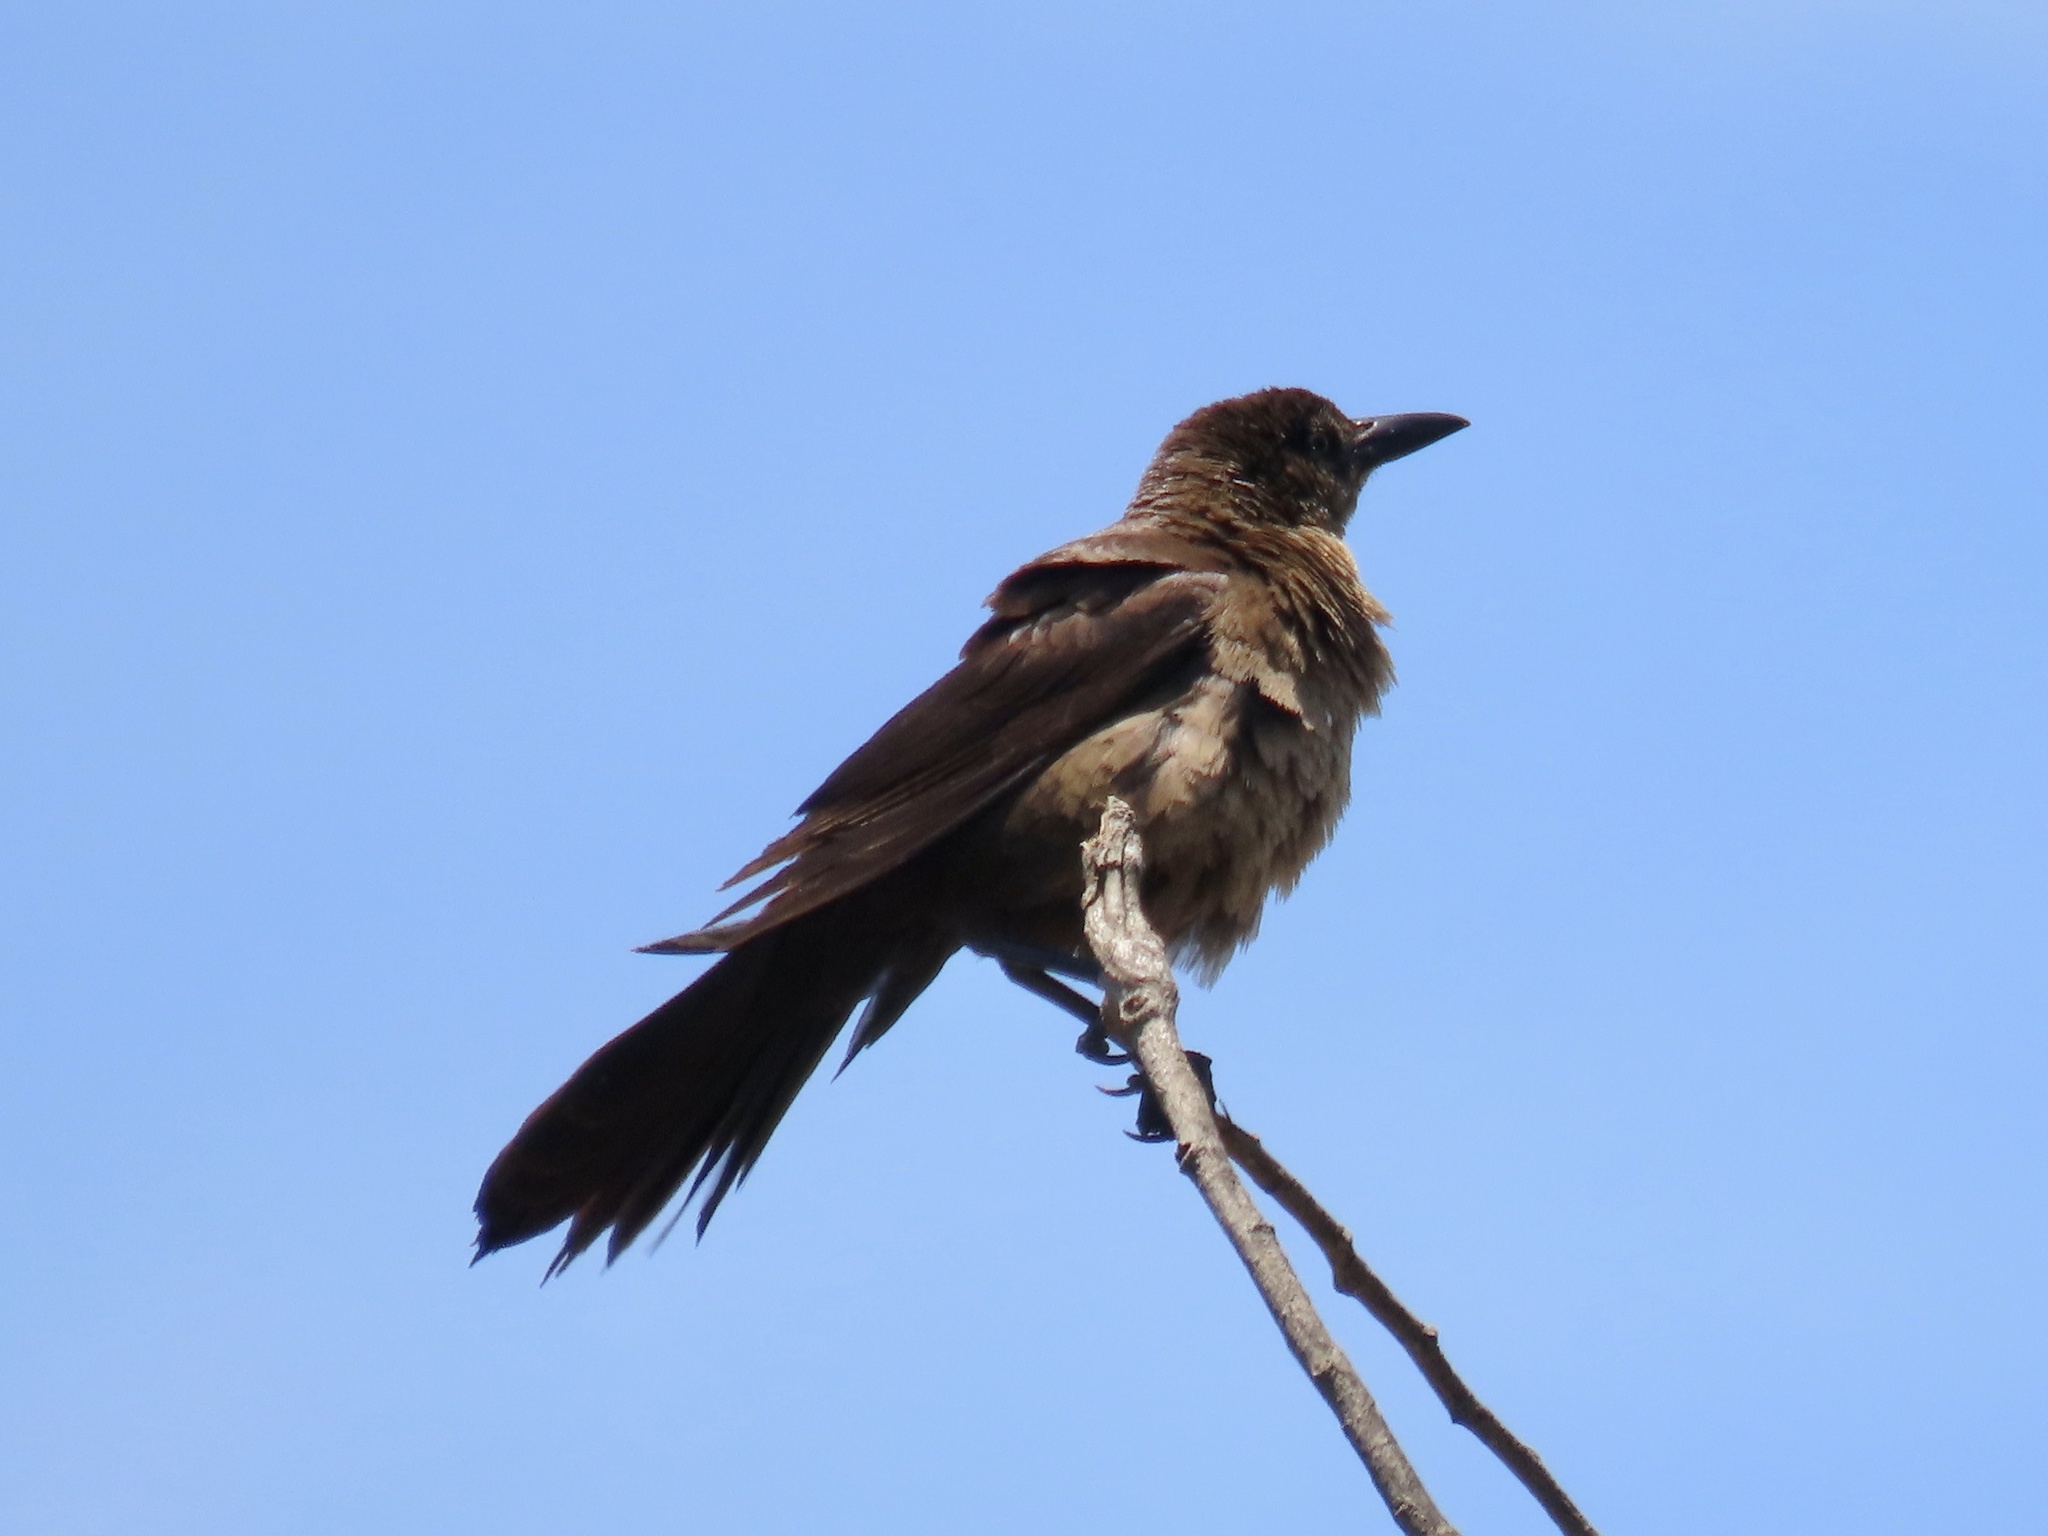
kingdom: Animalia
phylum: Chordata
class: Aves
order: Passeriformes
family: Icteridae
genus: Quiscalus
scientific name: Quiscalus mexicanus
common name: Great-tailed grackle
